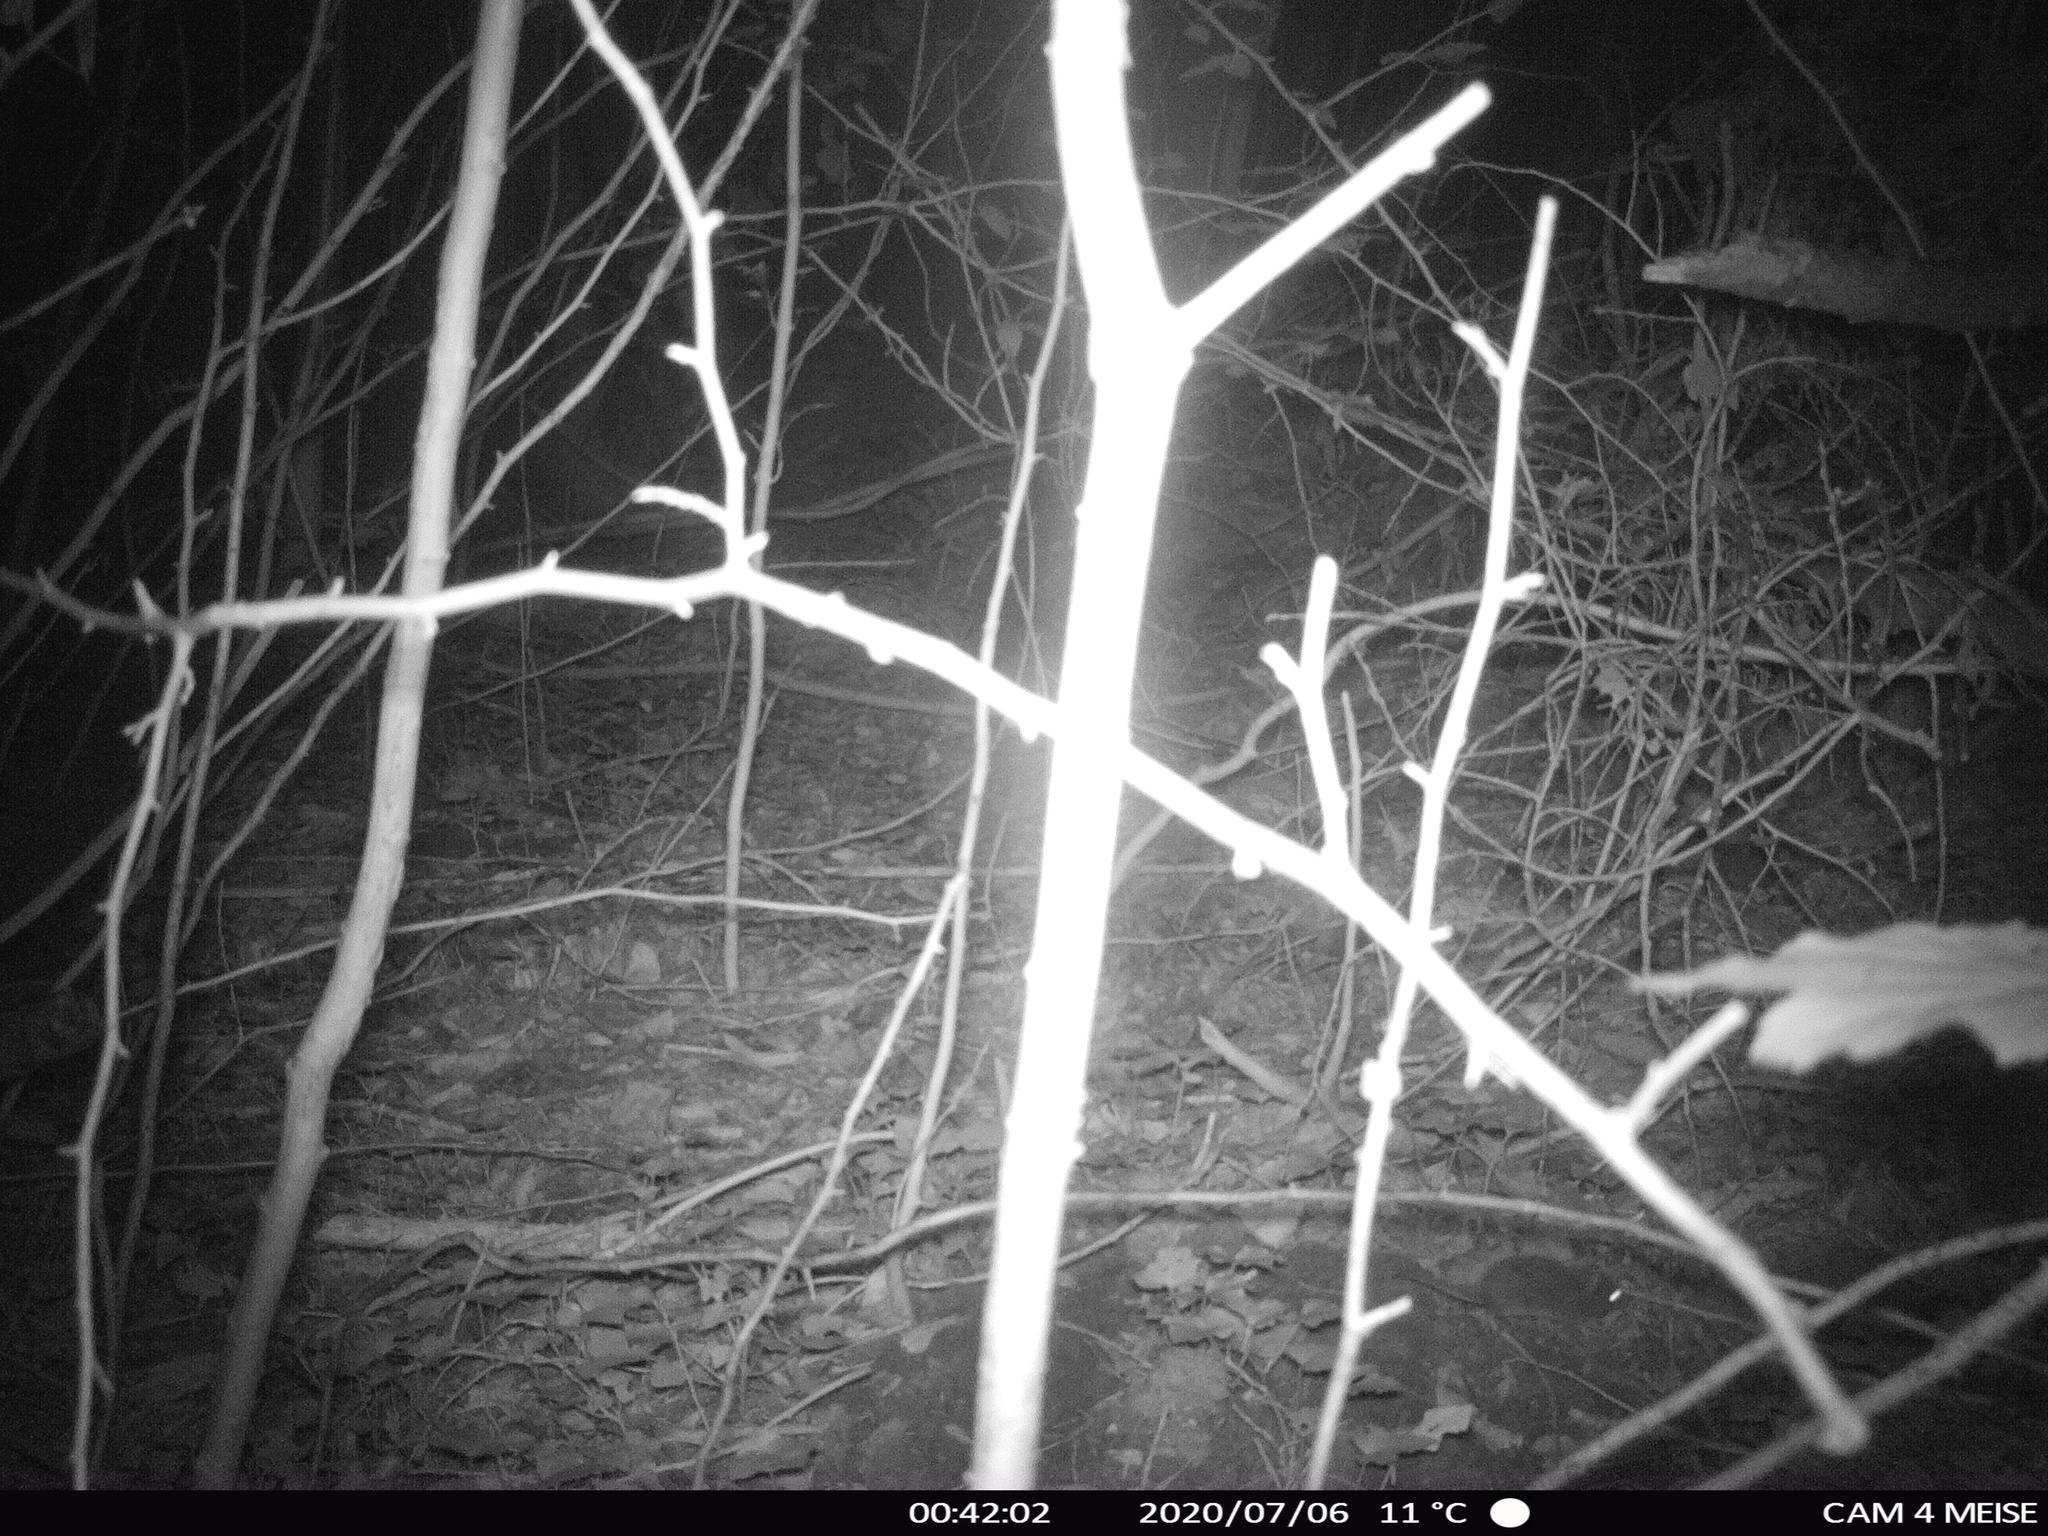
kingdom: Animalia
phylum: Chordata
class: Mammalia
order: Rodentia
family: Muridae
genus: Apodemus
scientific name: Apodemus sylvaticus
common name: Wood mouse
